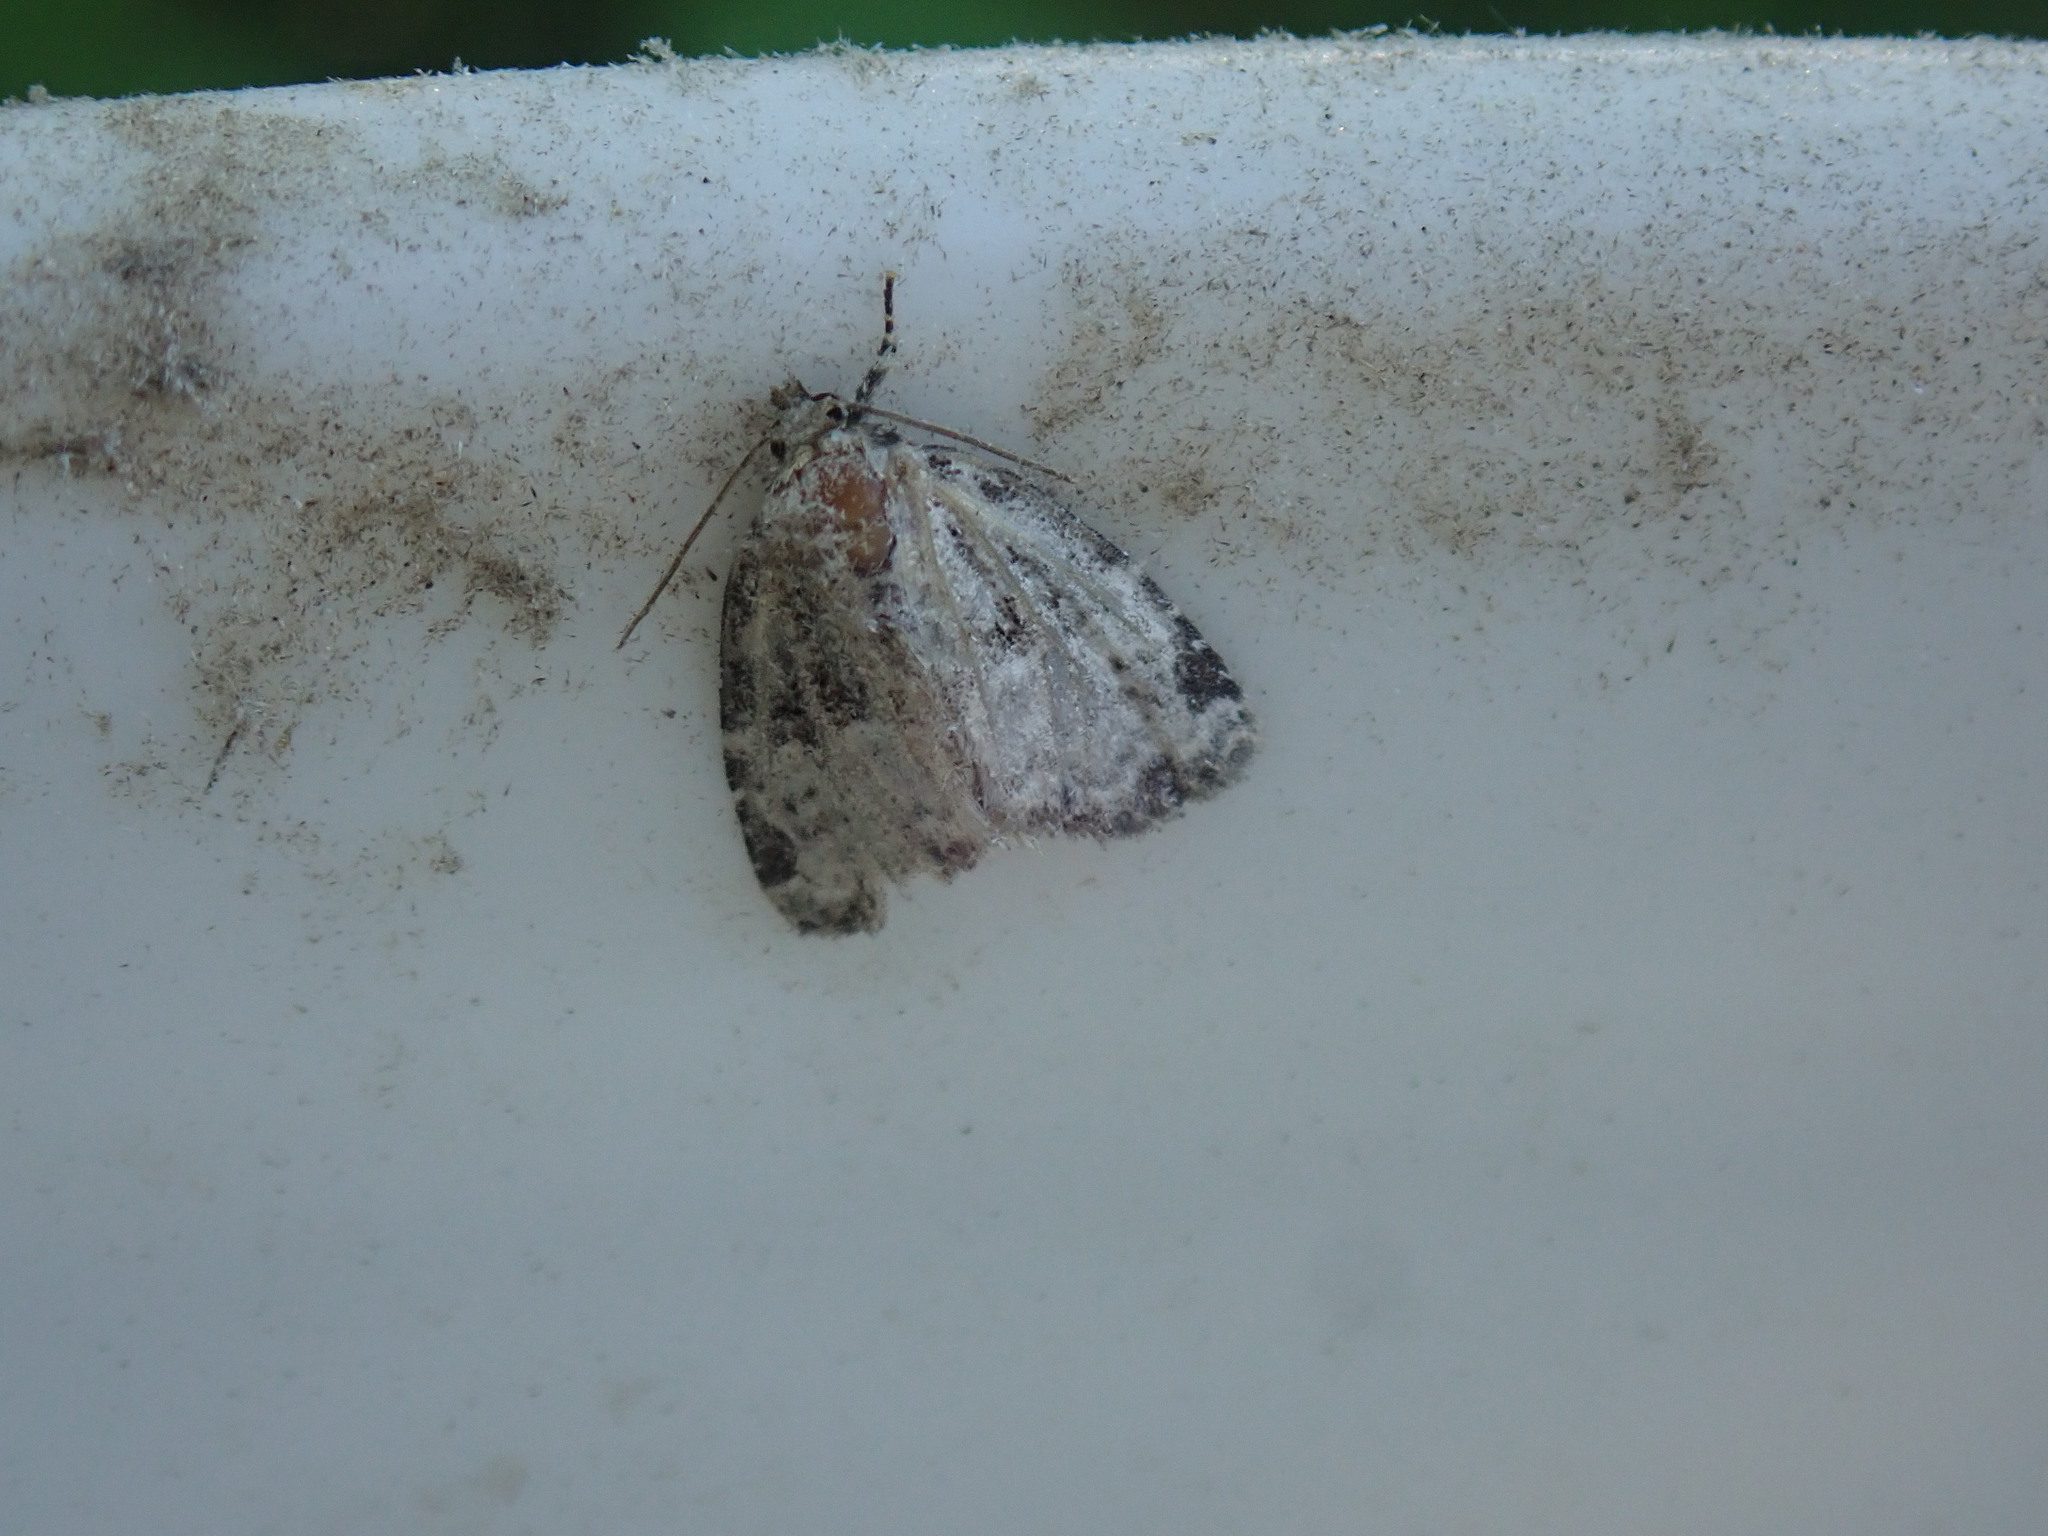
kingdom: Animalia
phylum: Arthropoda
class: Insecta
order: Lepidoptera
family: Noctuidae
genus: Protodeltote
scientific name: Protodeltote muscosula
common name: Large mossy glyph
